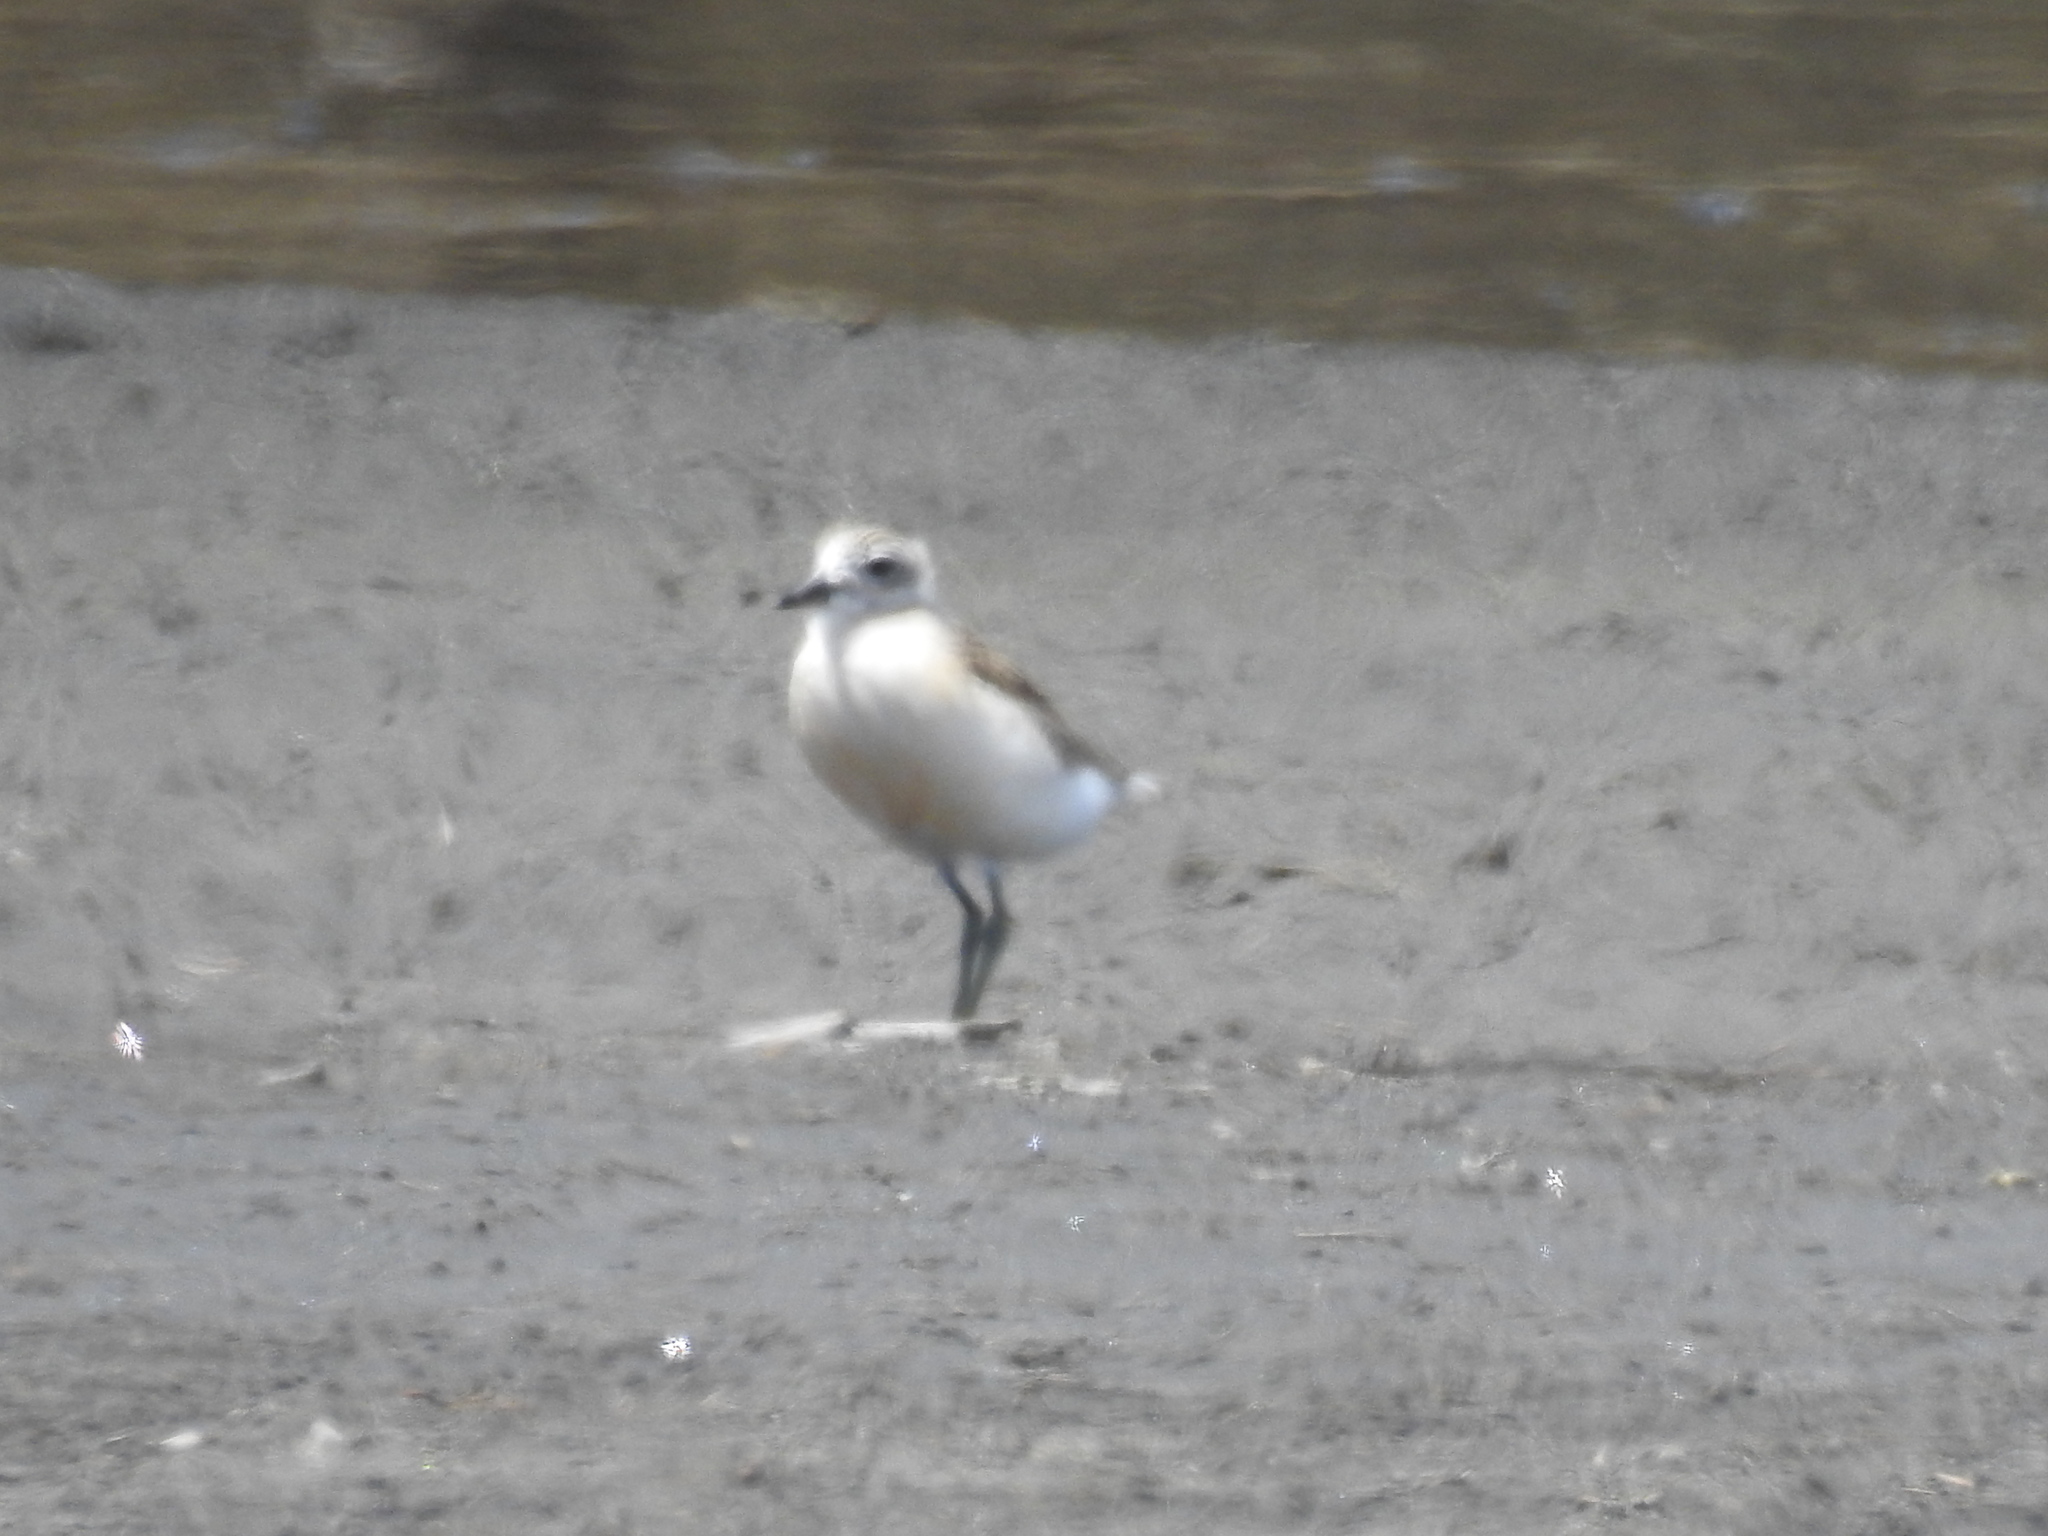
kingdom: Animalia
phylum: Chordata
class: Aves
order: Charadriiformes
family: Charadriidae
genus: Anarhynchus
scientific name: Anarhynchus
